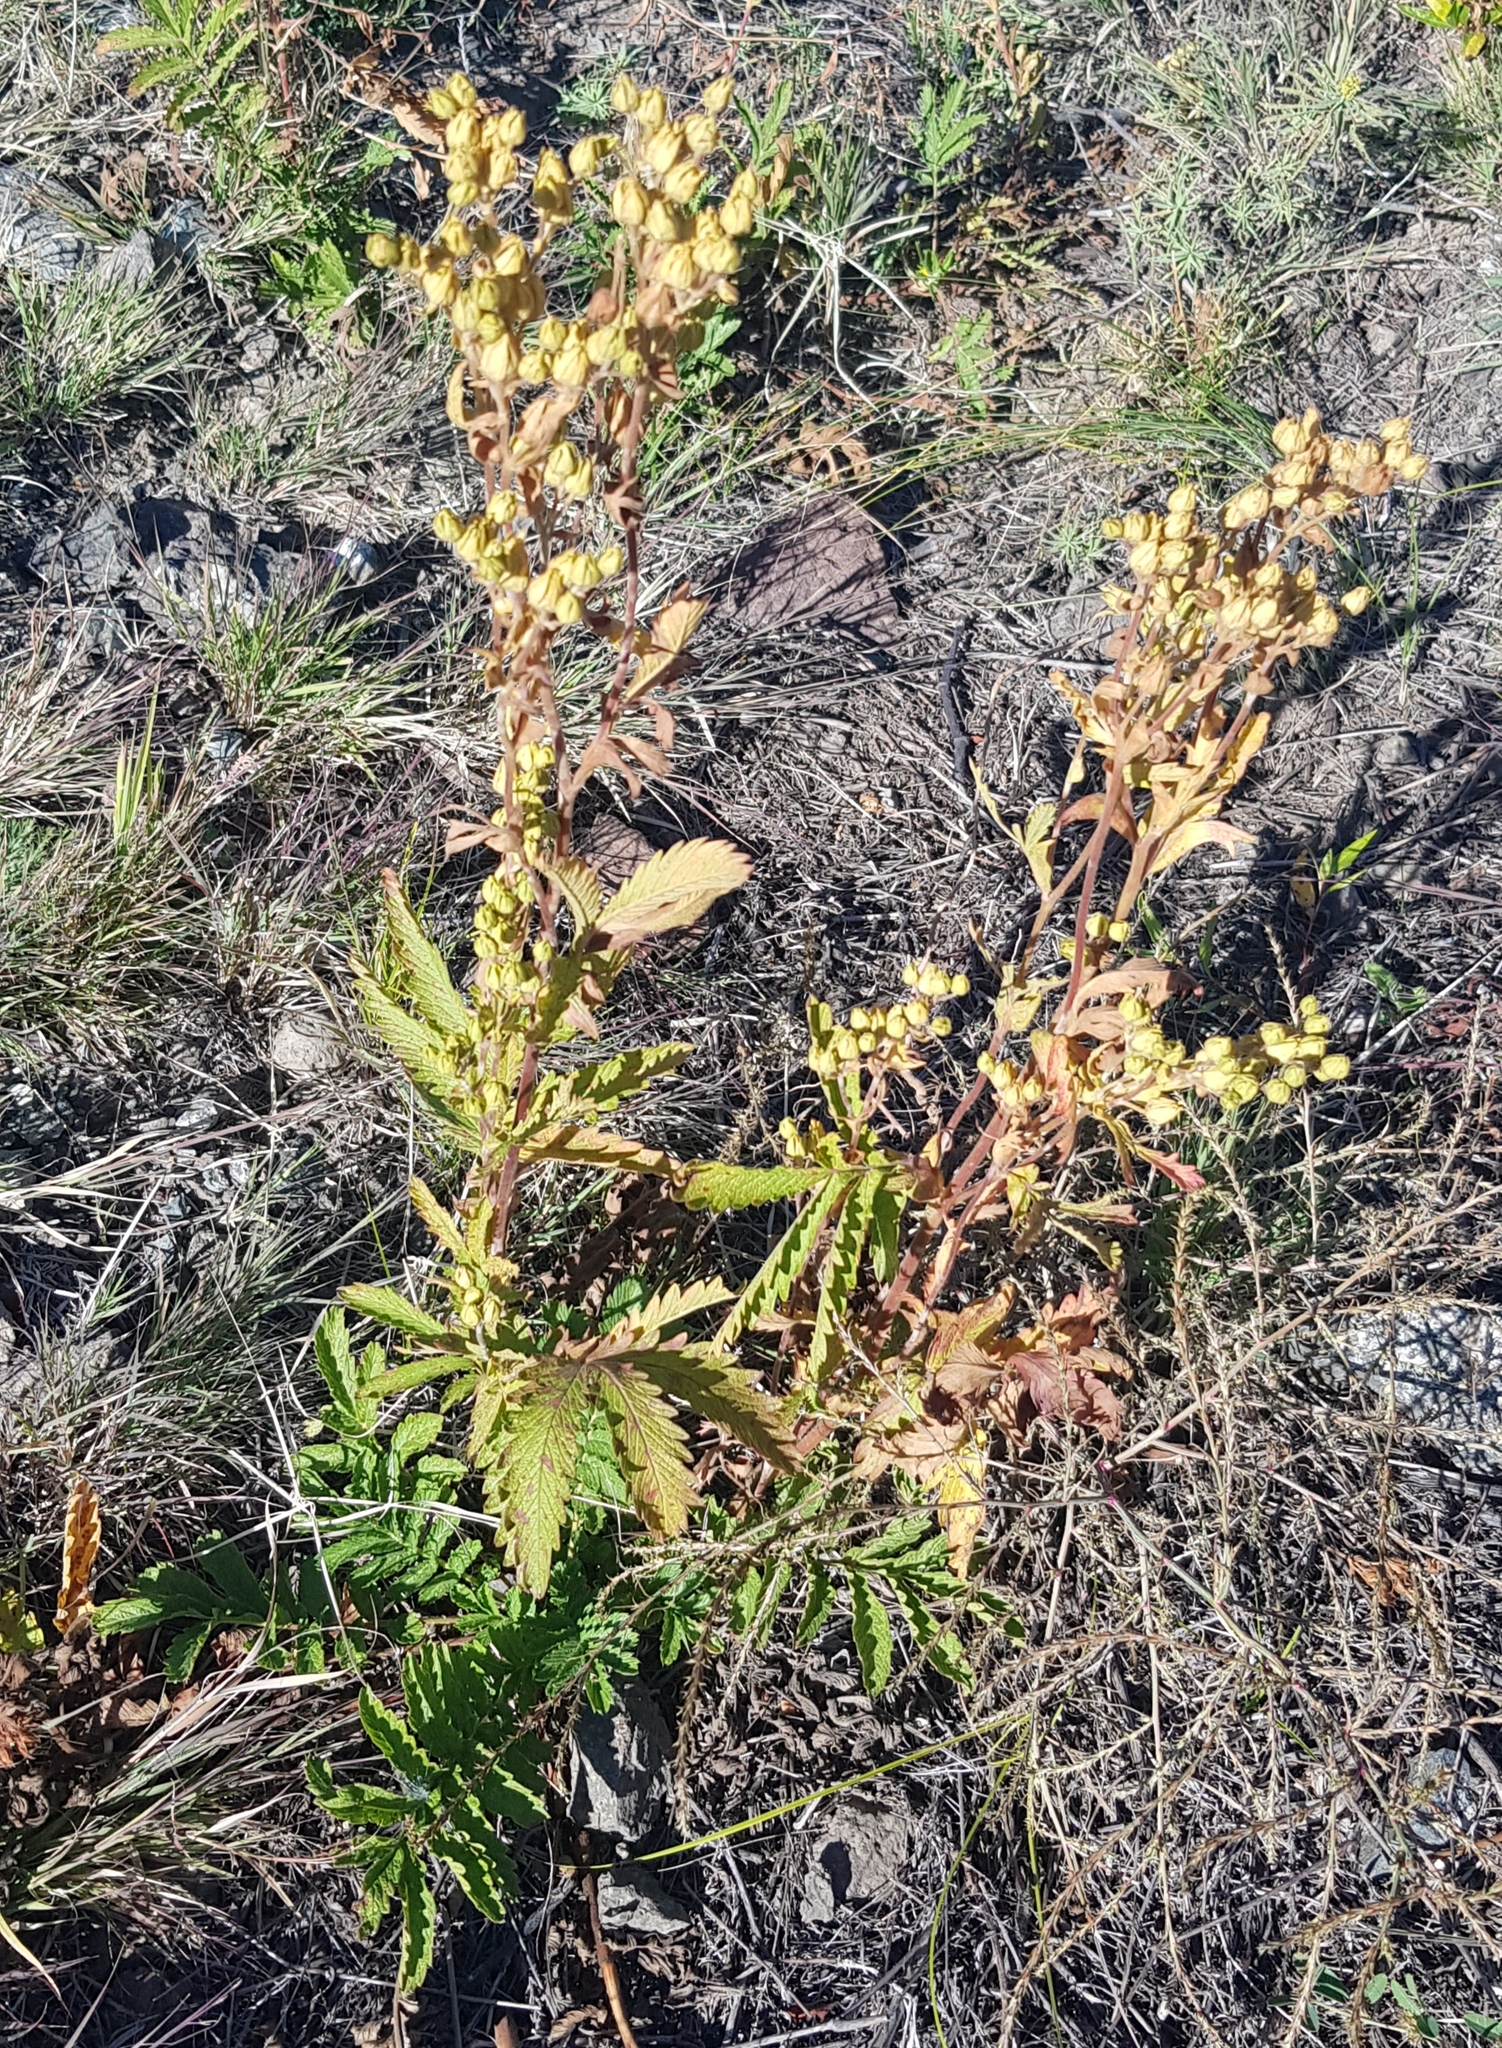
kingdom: Plantae
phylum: Tracheophyta
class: Magnoliopsida
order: Rosales
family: Rosaceae
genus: Potentilla
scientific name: Potentilla longifolia
